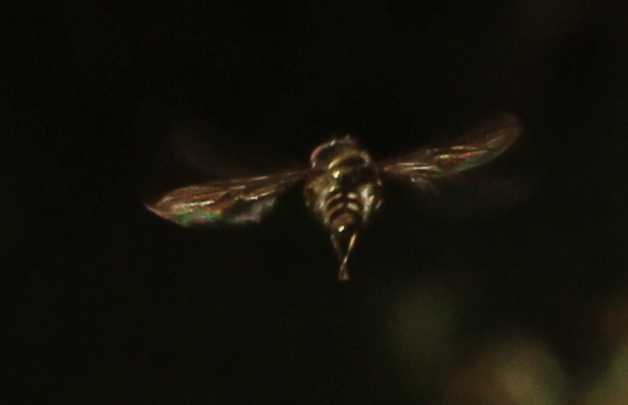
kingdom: Animalia
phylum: Arthropoda
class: Insecta
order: Diptera
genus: Bacchina
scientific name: Bacchina
